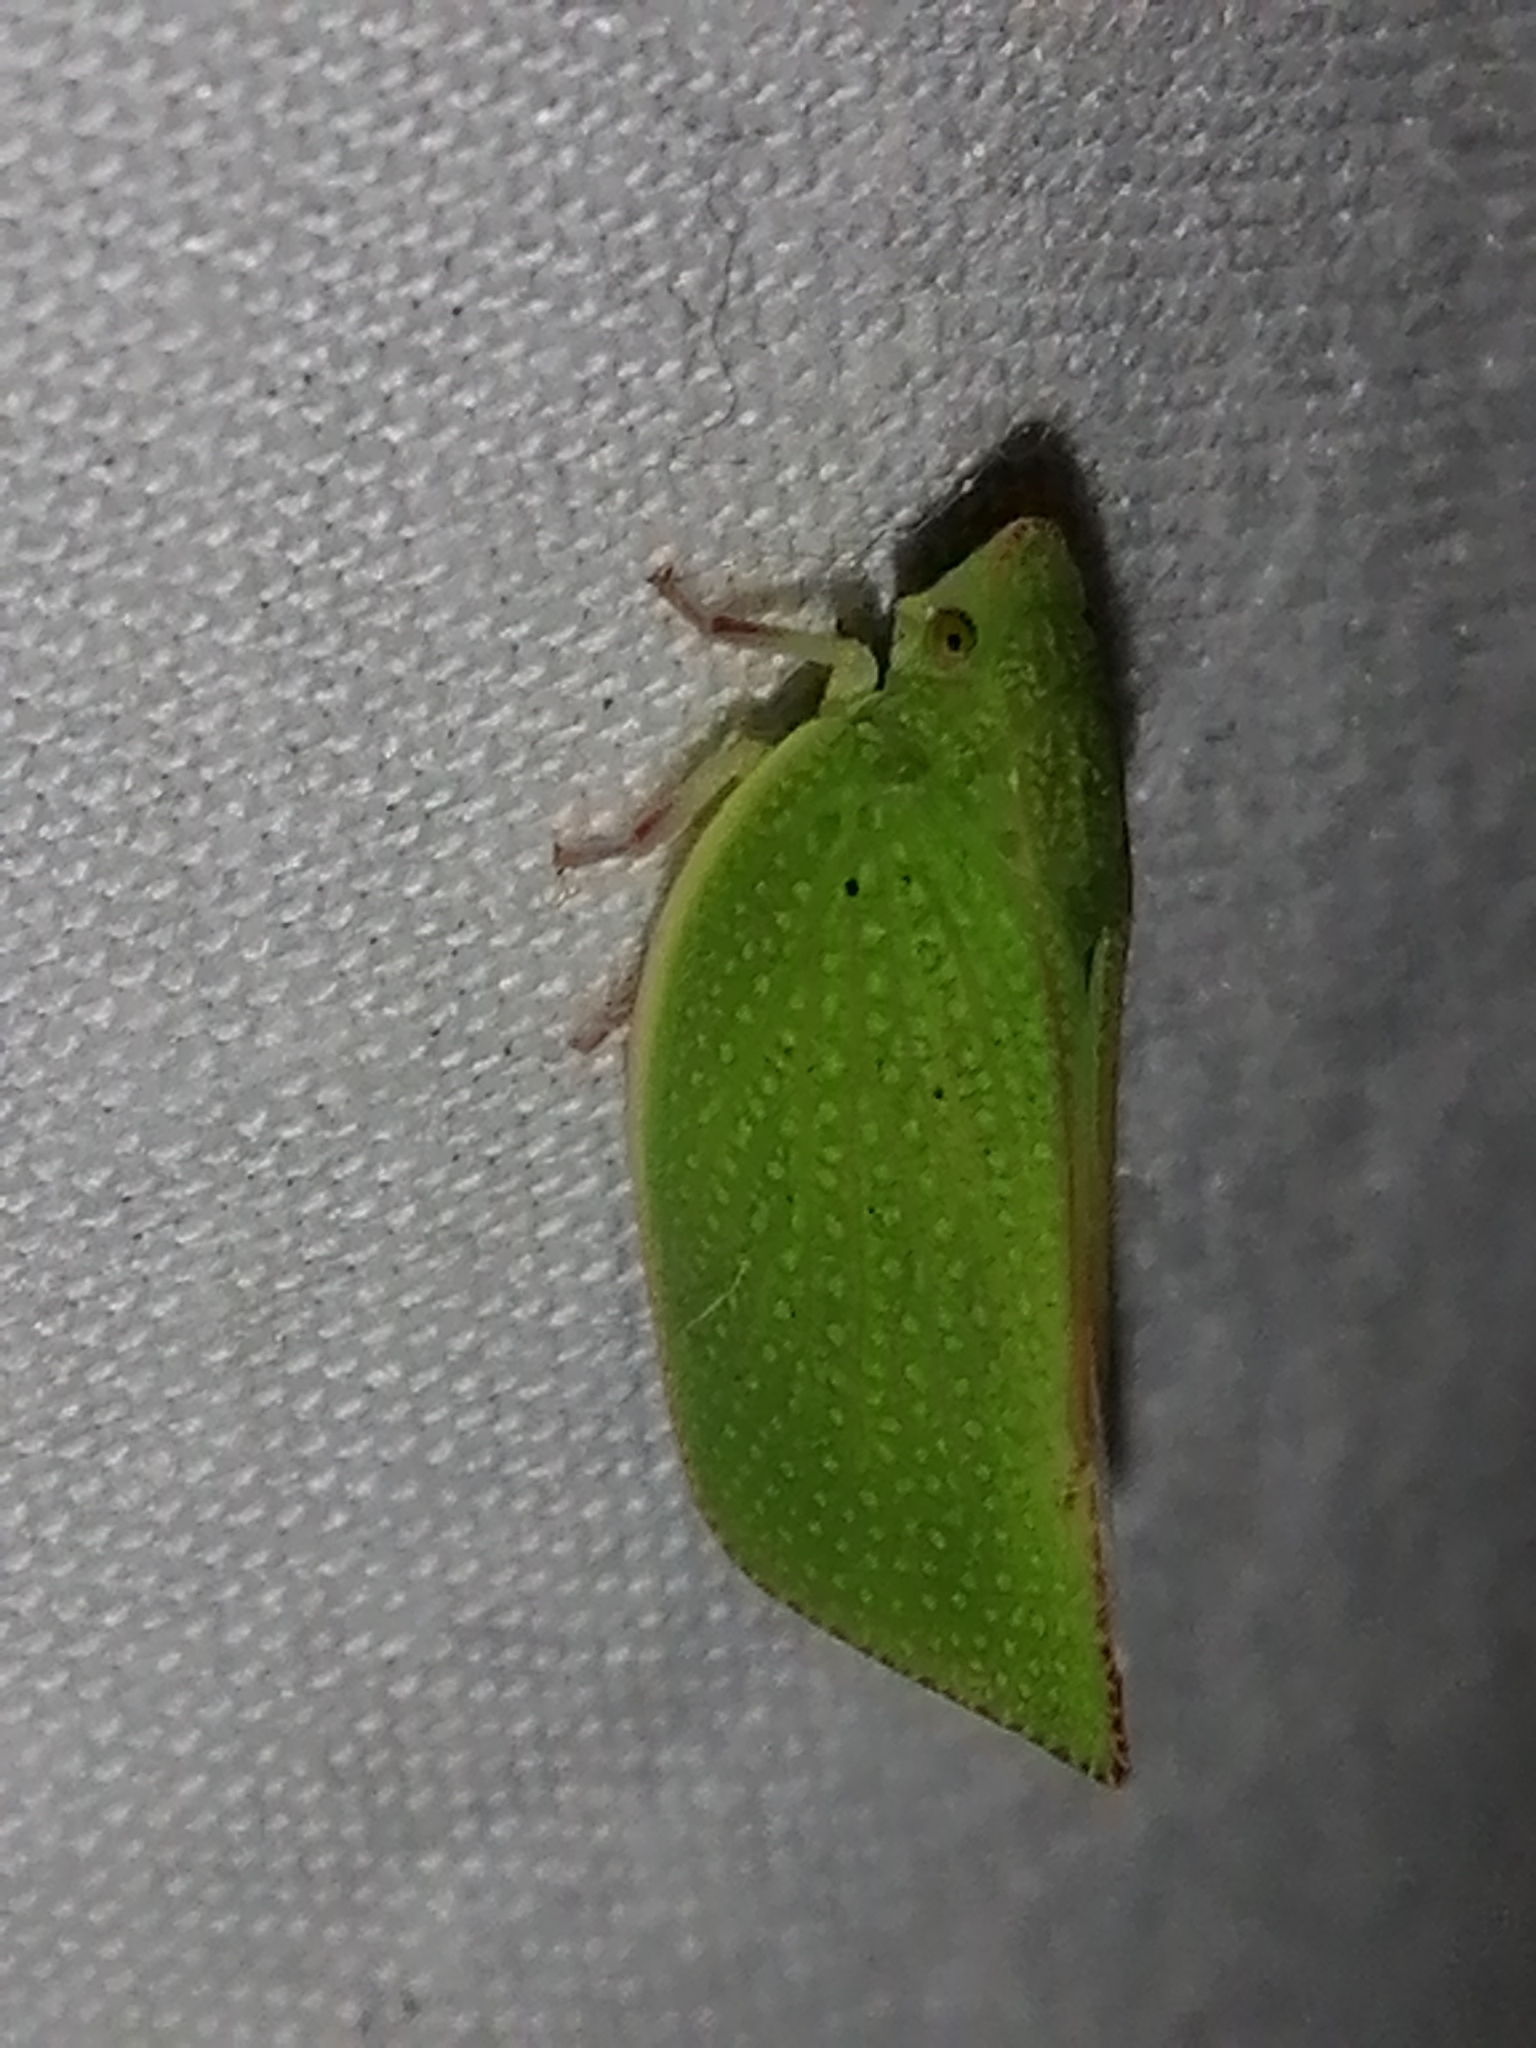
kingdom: Animalia
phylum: Arthropoda
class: Insecta
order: Hemiptera
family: Flatidae
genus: Siphanta
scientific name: Siphanta acuta
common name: Torpedo bug
